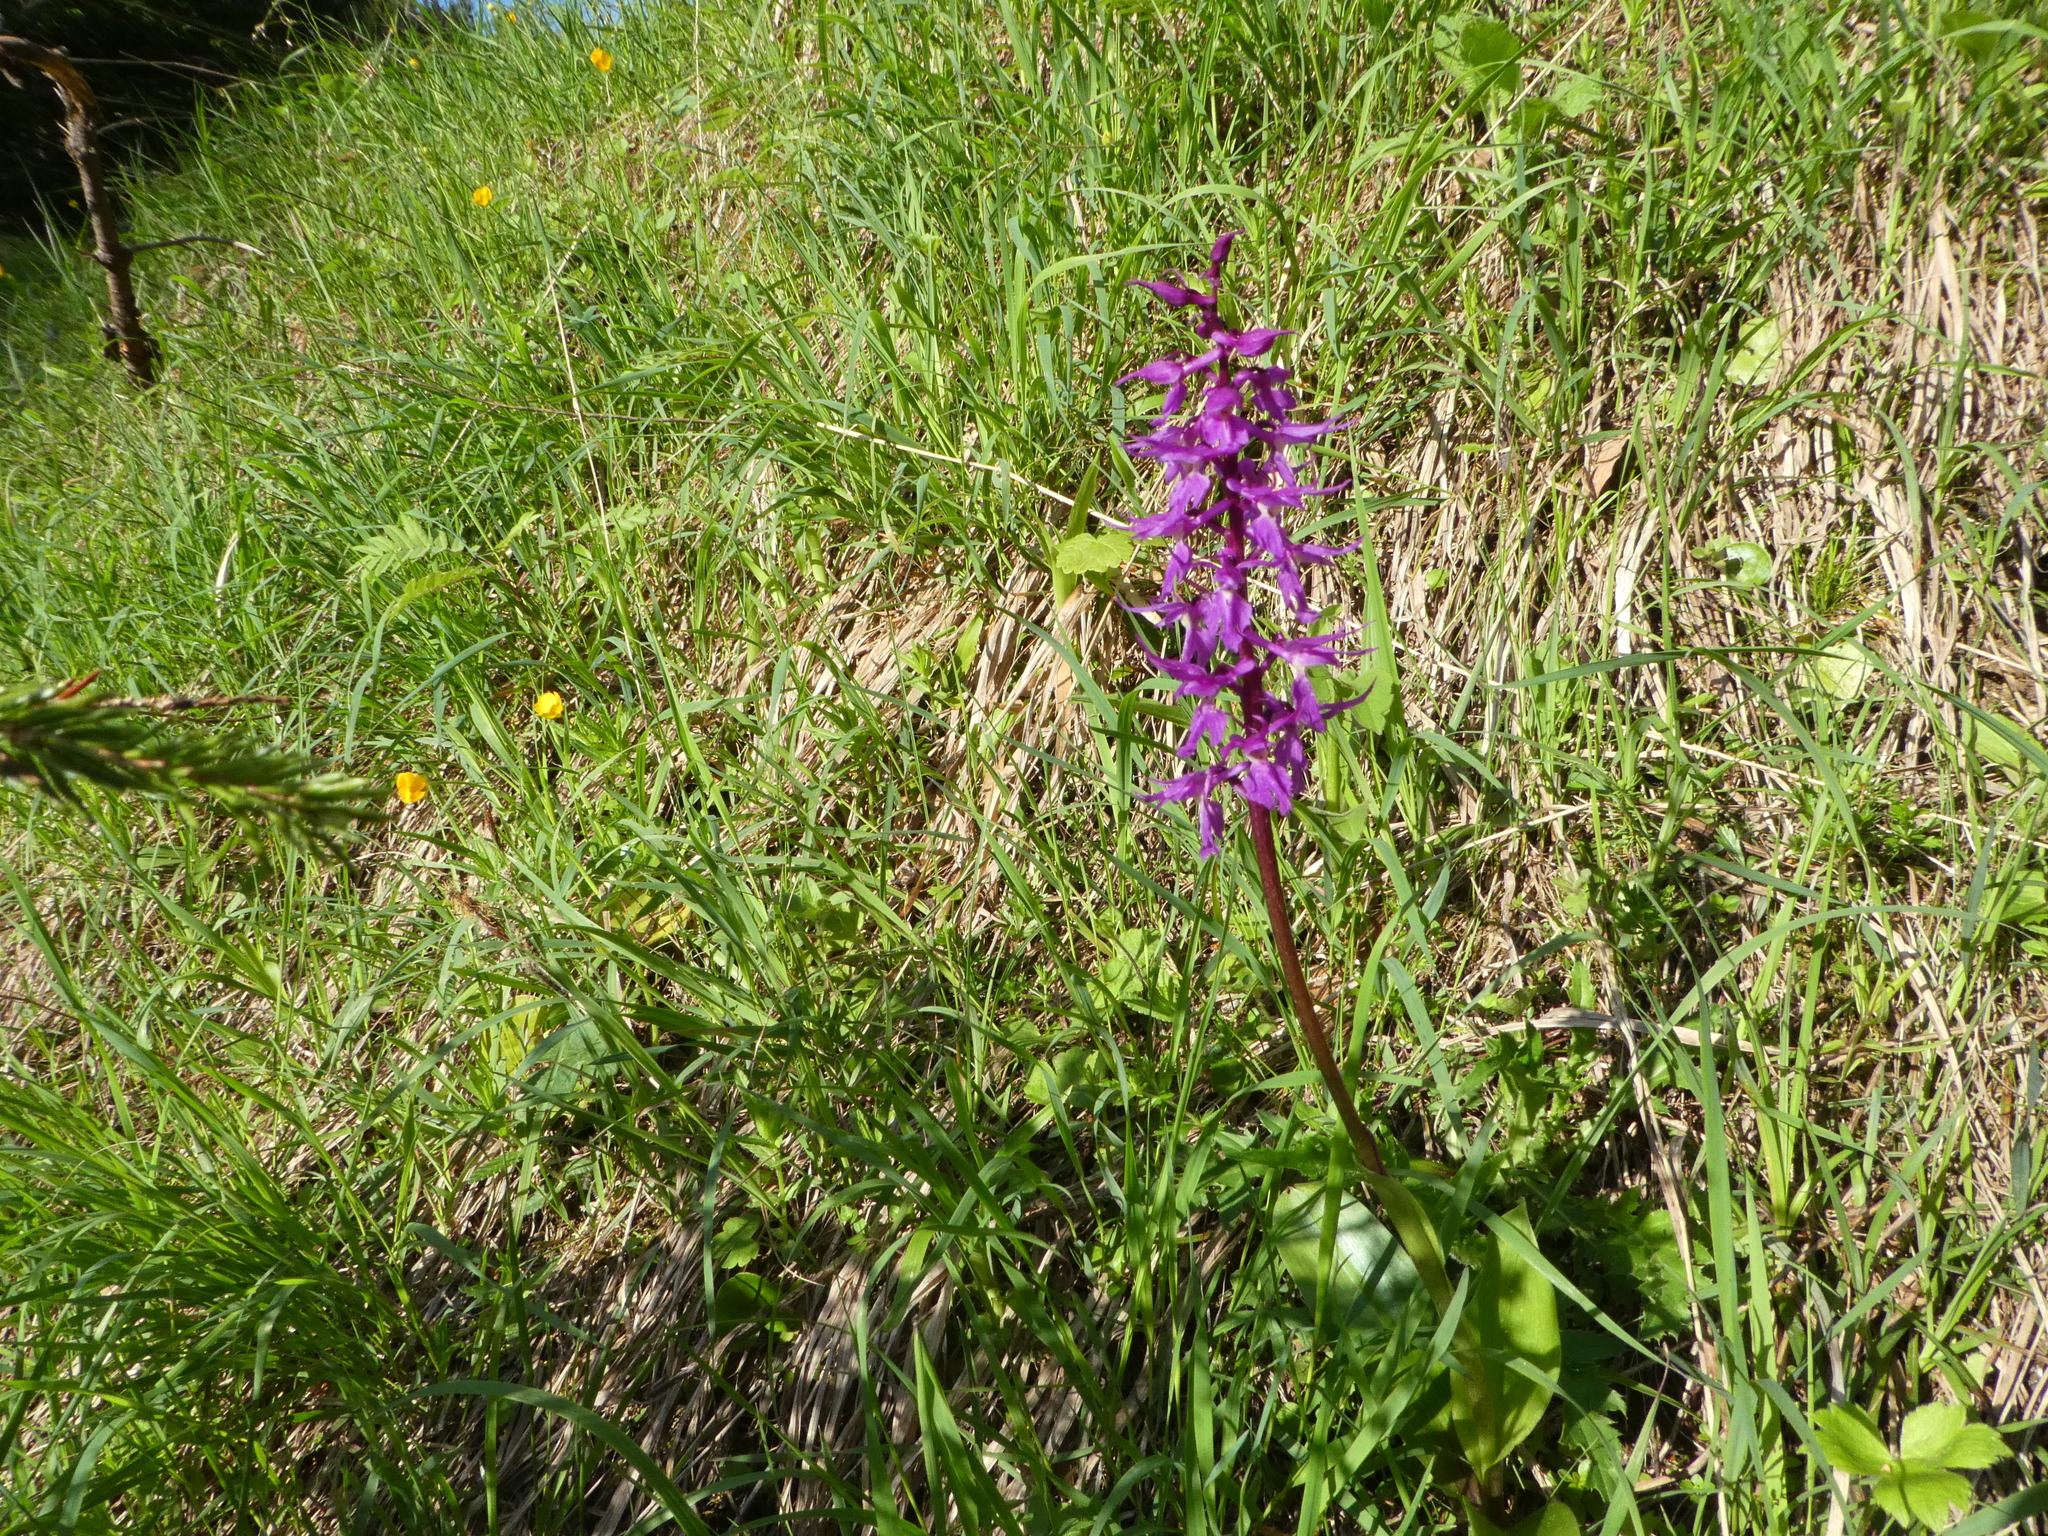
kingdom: Plantae
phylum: Tracheophyta
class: Liliopsida
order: Asparagales
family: Orchidaceae
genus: Orchis
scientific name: Orchis mascula
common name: Early-purple orchid
